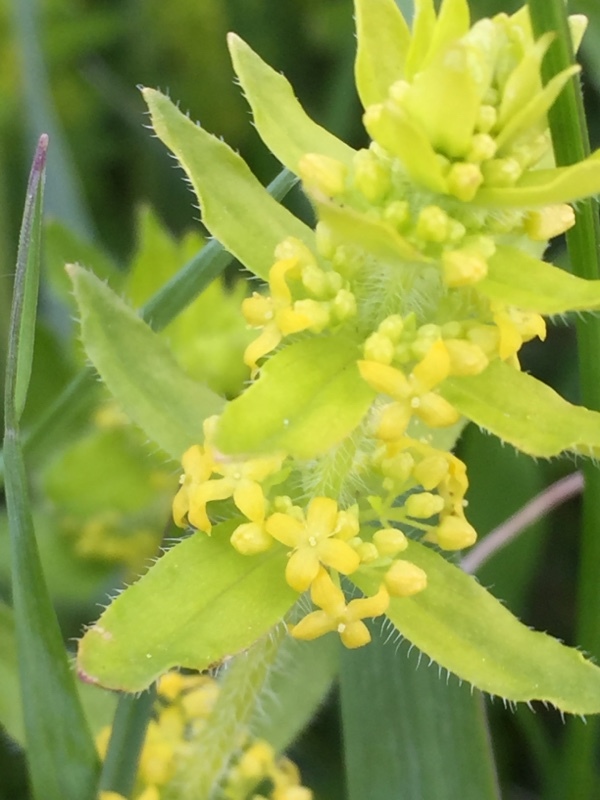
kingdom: Plantae
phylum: Tracheophyta
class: Magnoliopsida
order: Gentianales
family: Rubiaceae
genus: Cruciata
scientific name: Cruciata laevipes
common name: Crosswort
